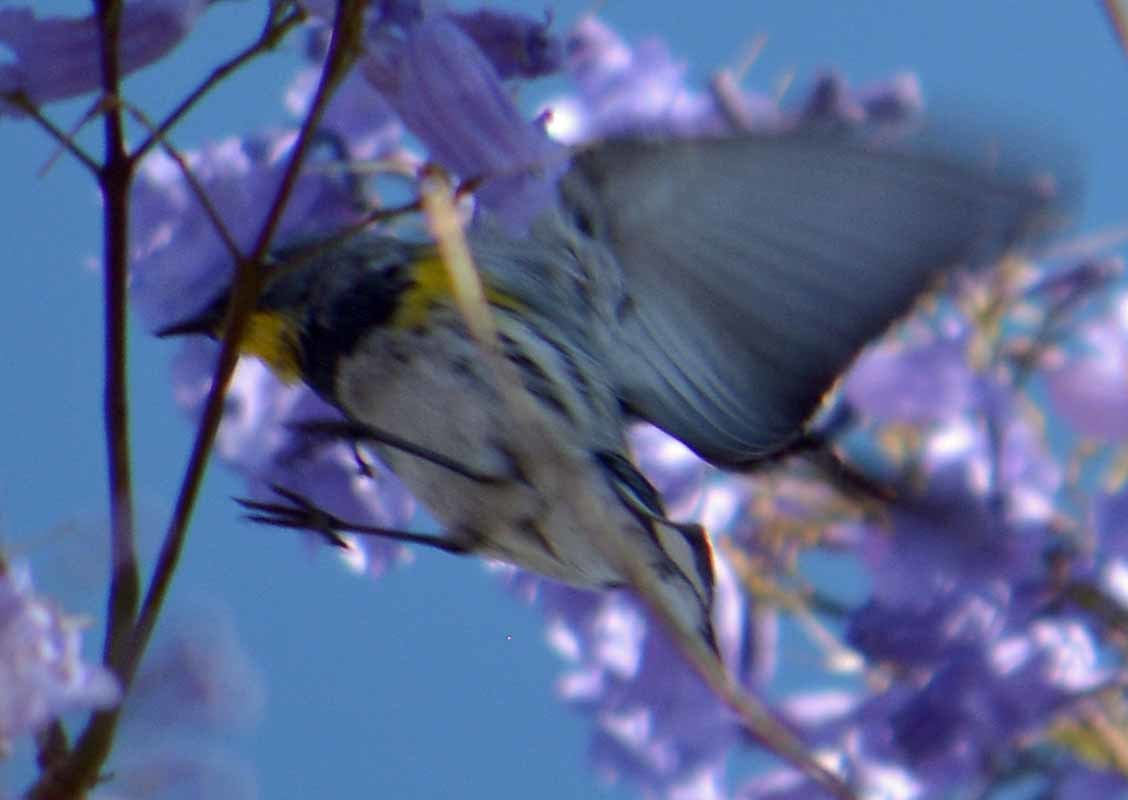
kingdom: Animalia
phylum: Chordata
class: Aves
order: Passeriformes
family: Parulidae
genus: Setophaga
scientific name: Setophaga coronata
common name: Myrtle warbler
